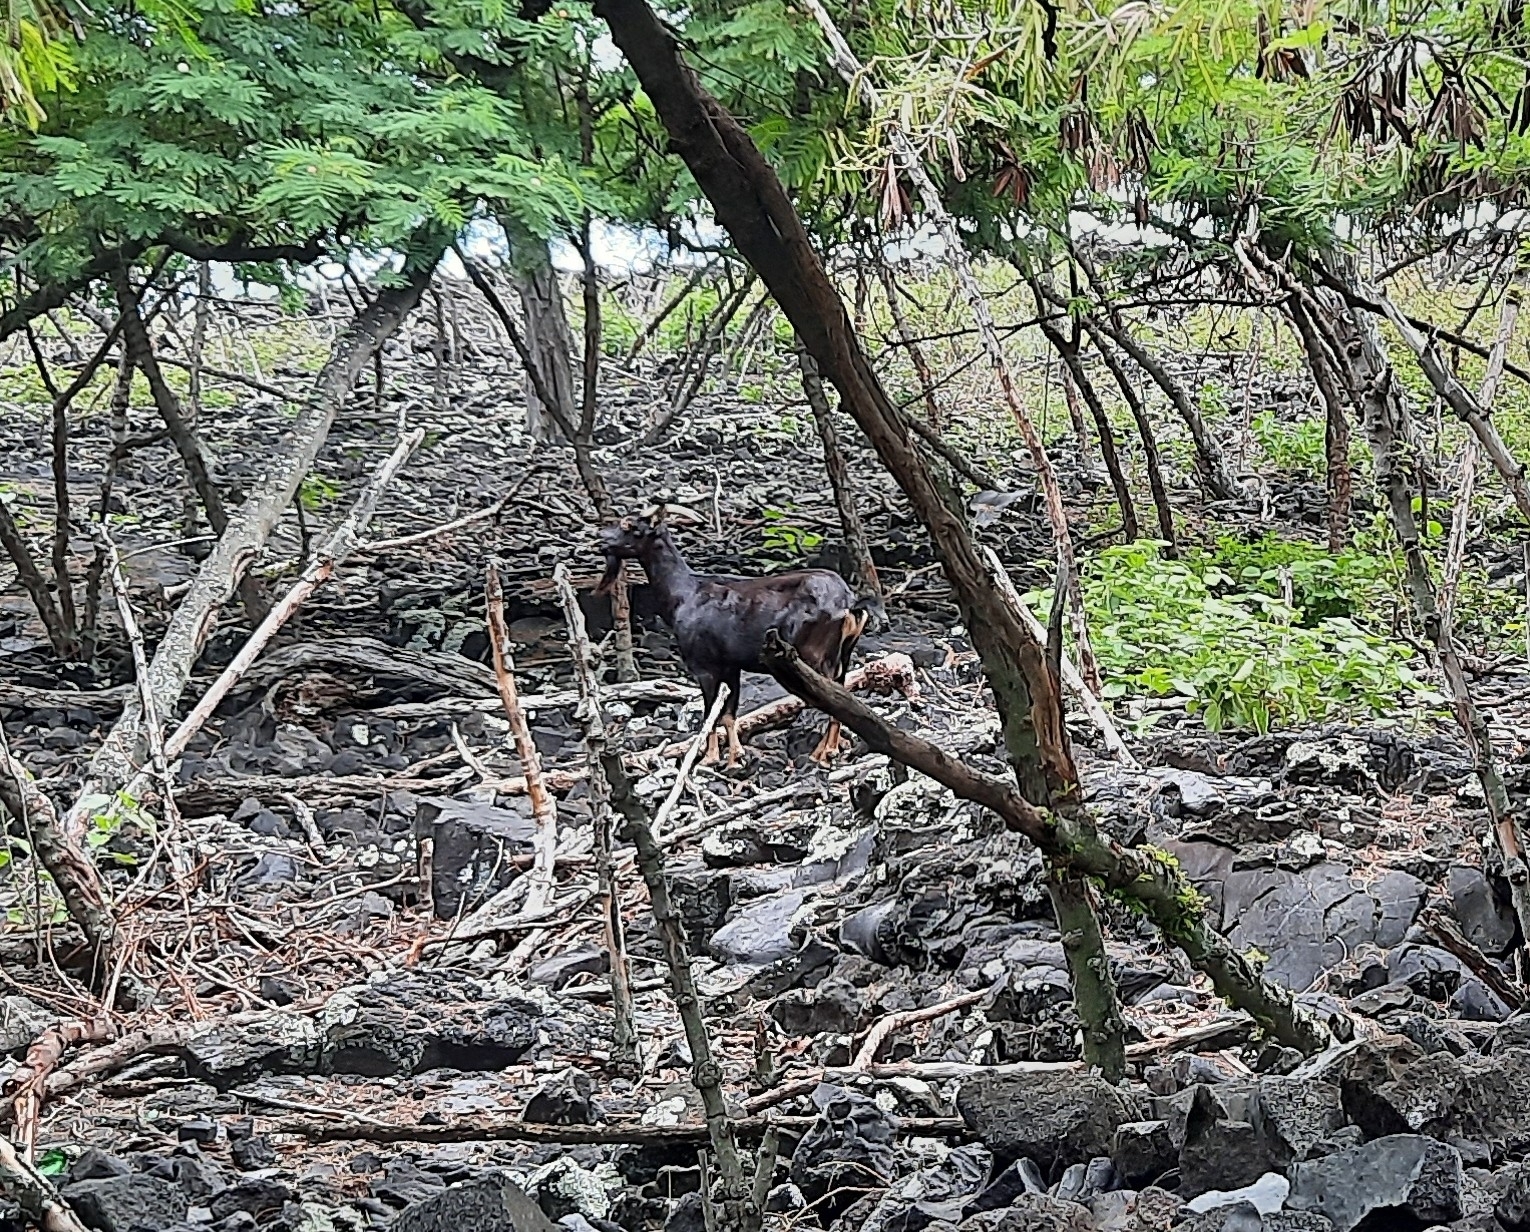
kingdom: Animalia
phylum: Chordata
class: Mammalia
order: Artiodactyla
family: Bovidae
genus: Capra
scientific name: Capra hircus
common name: Domestic goat
